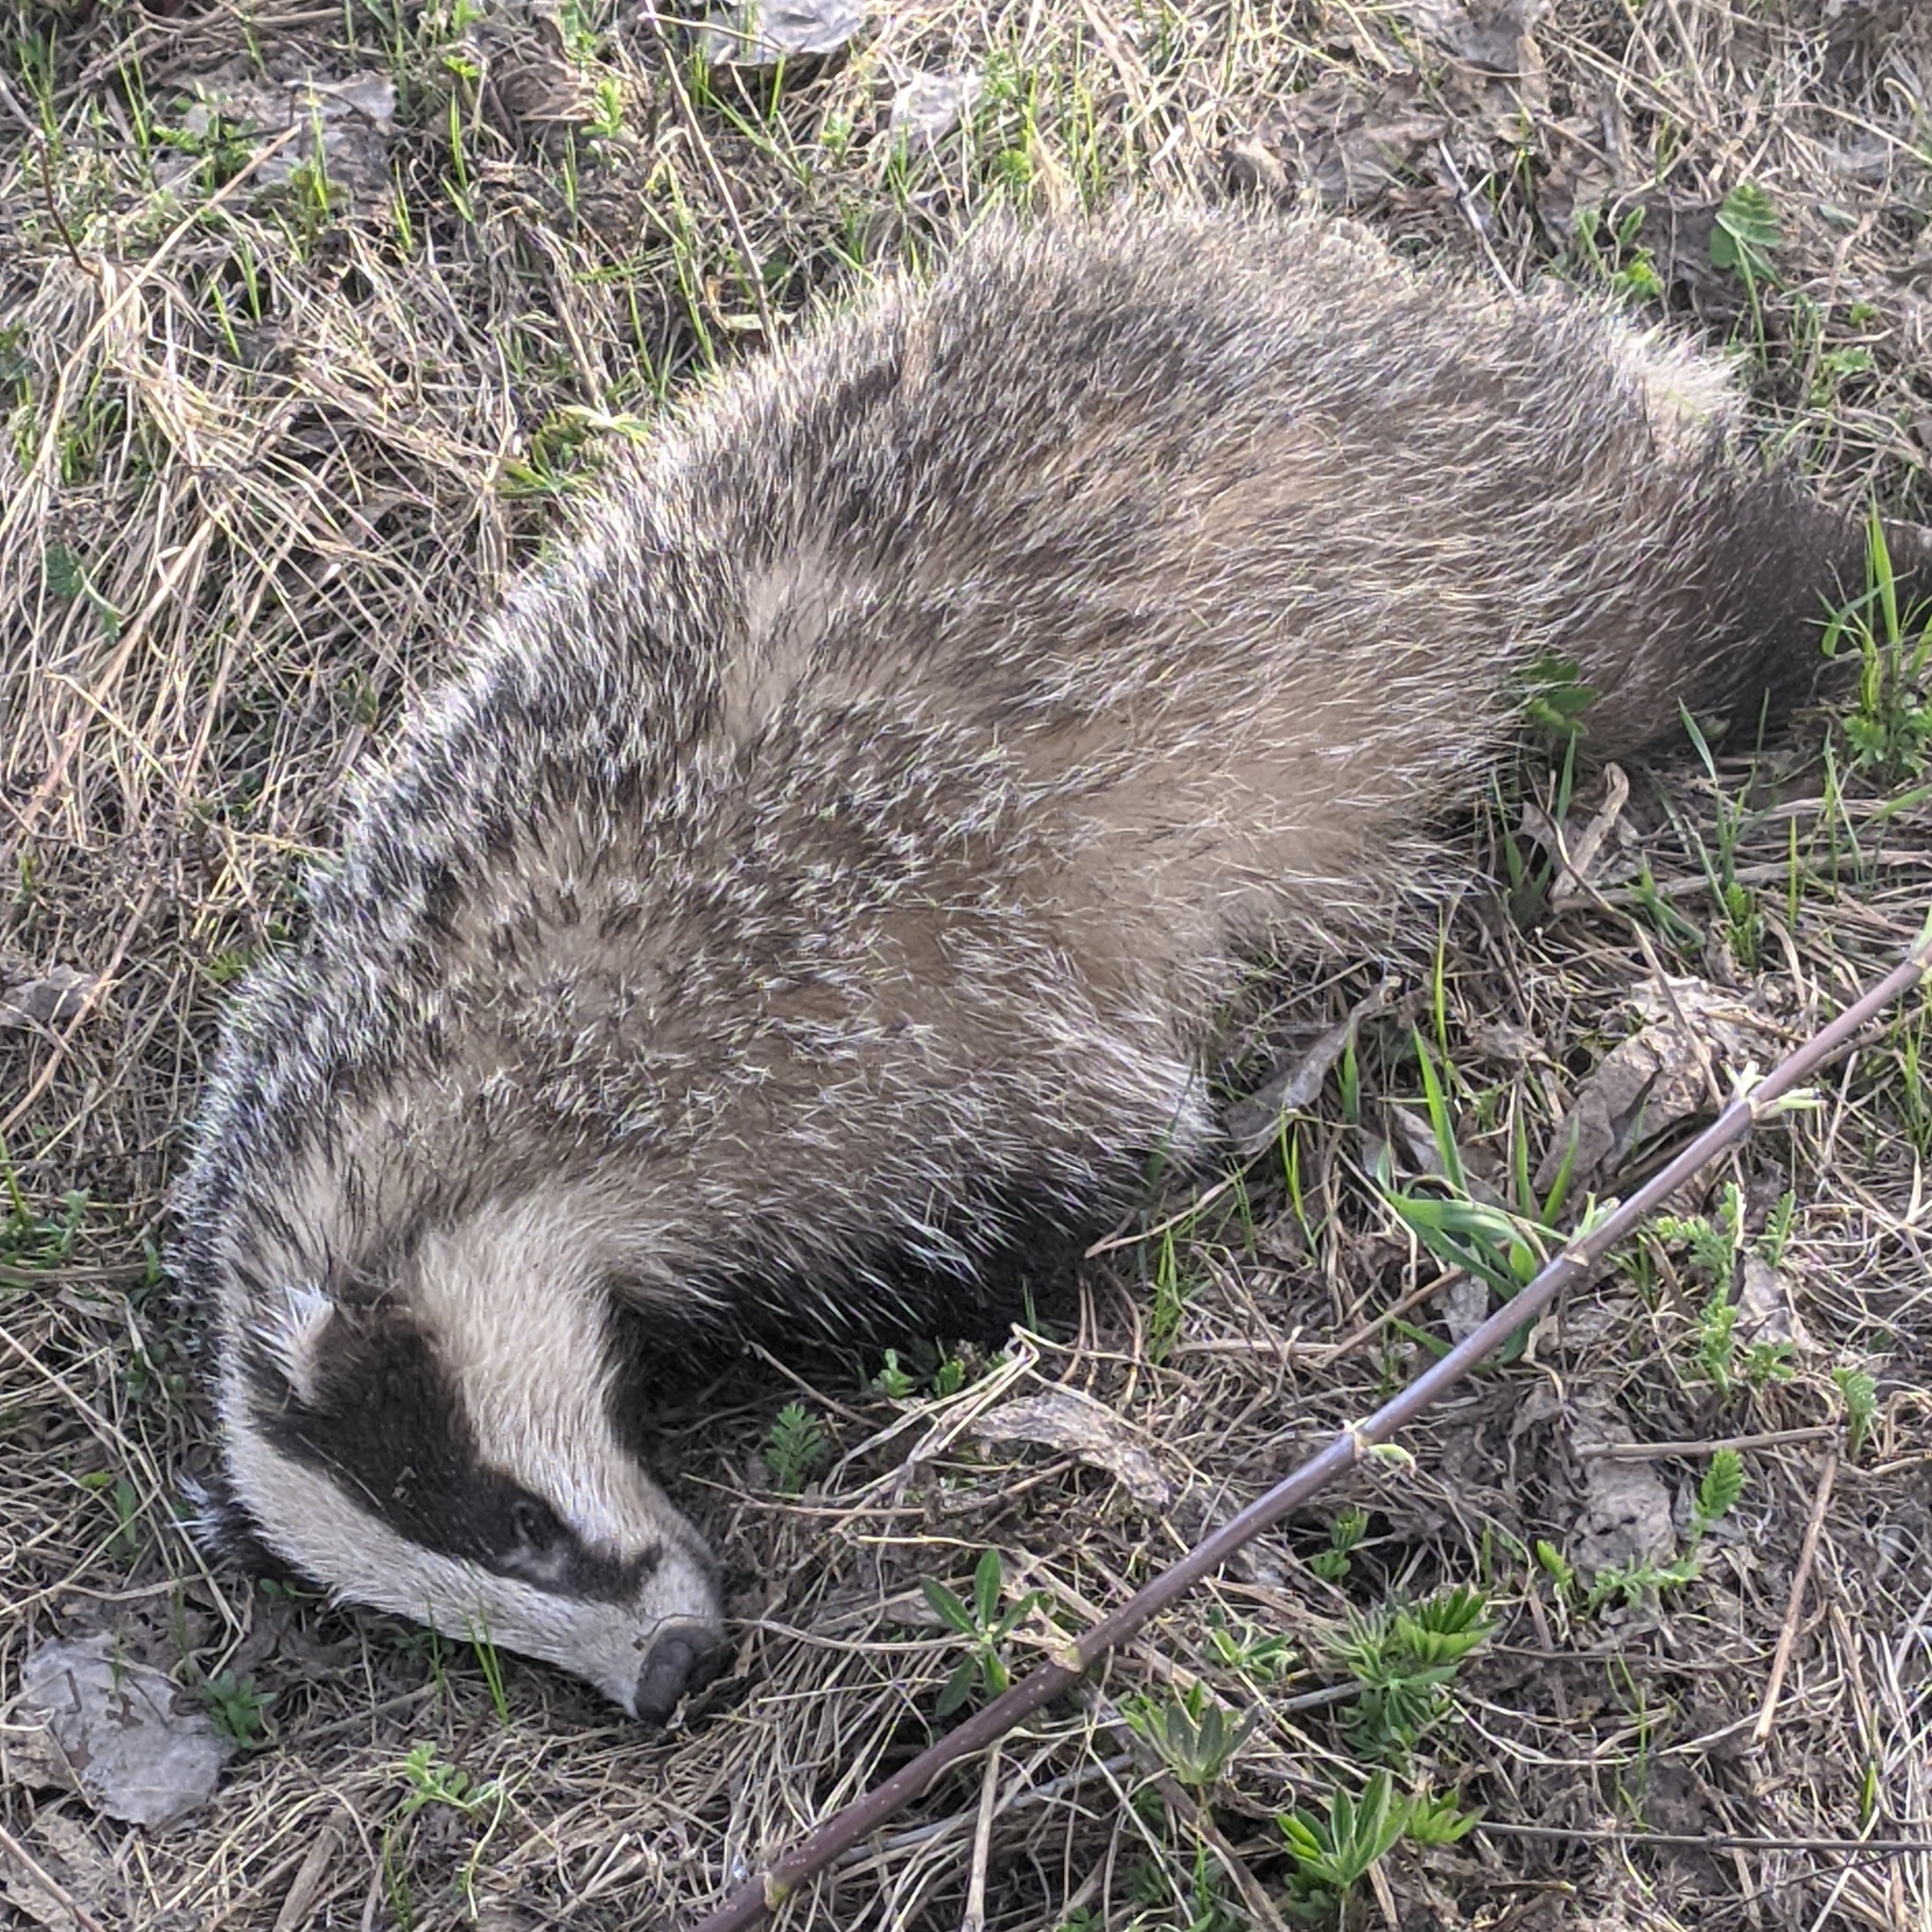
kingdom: Animalia
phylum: Chordata
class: Mammalia
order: Carnivora
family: Mustelidae
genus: Meles
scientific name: Meles meles
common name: Eurasian badger
